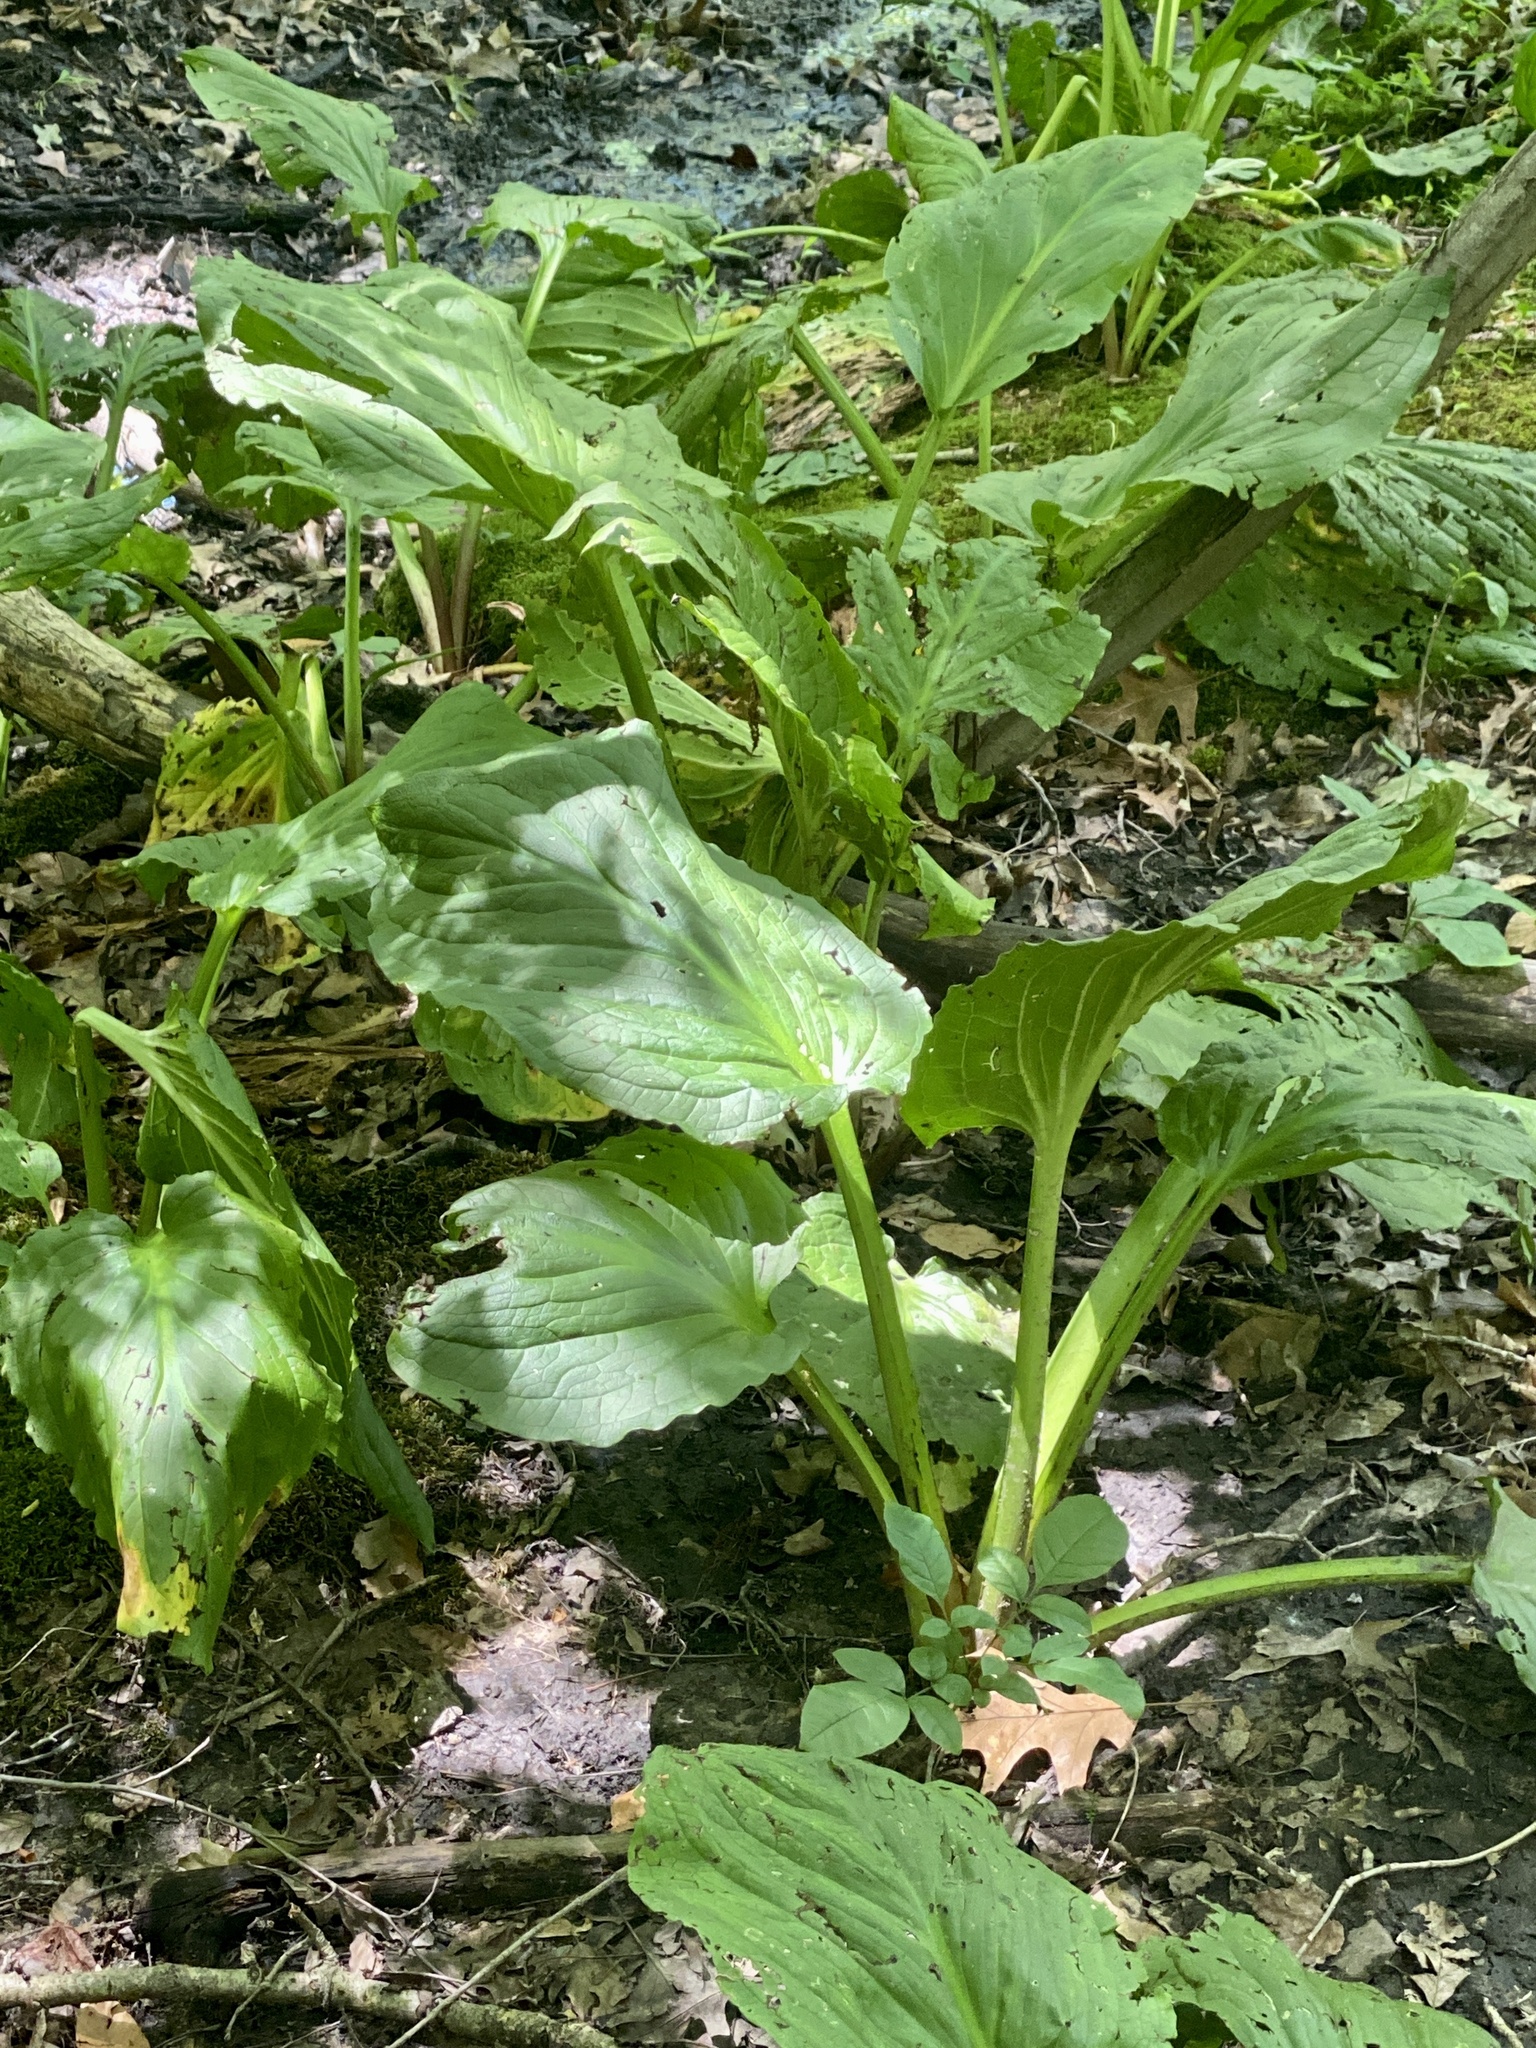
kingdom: Plantae
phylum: Tracheophyta
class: Liliopsida
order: Alismatales
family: Araceae
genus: Symplocarpus
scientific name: Symplocarpus foetidus
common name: Eastern skunk cabbage
